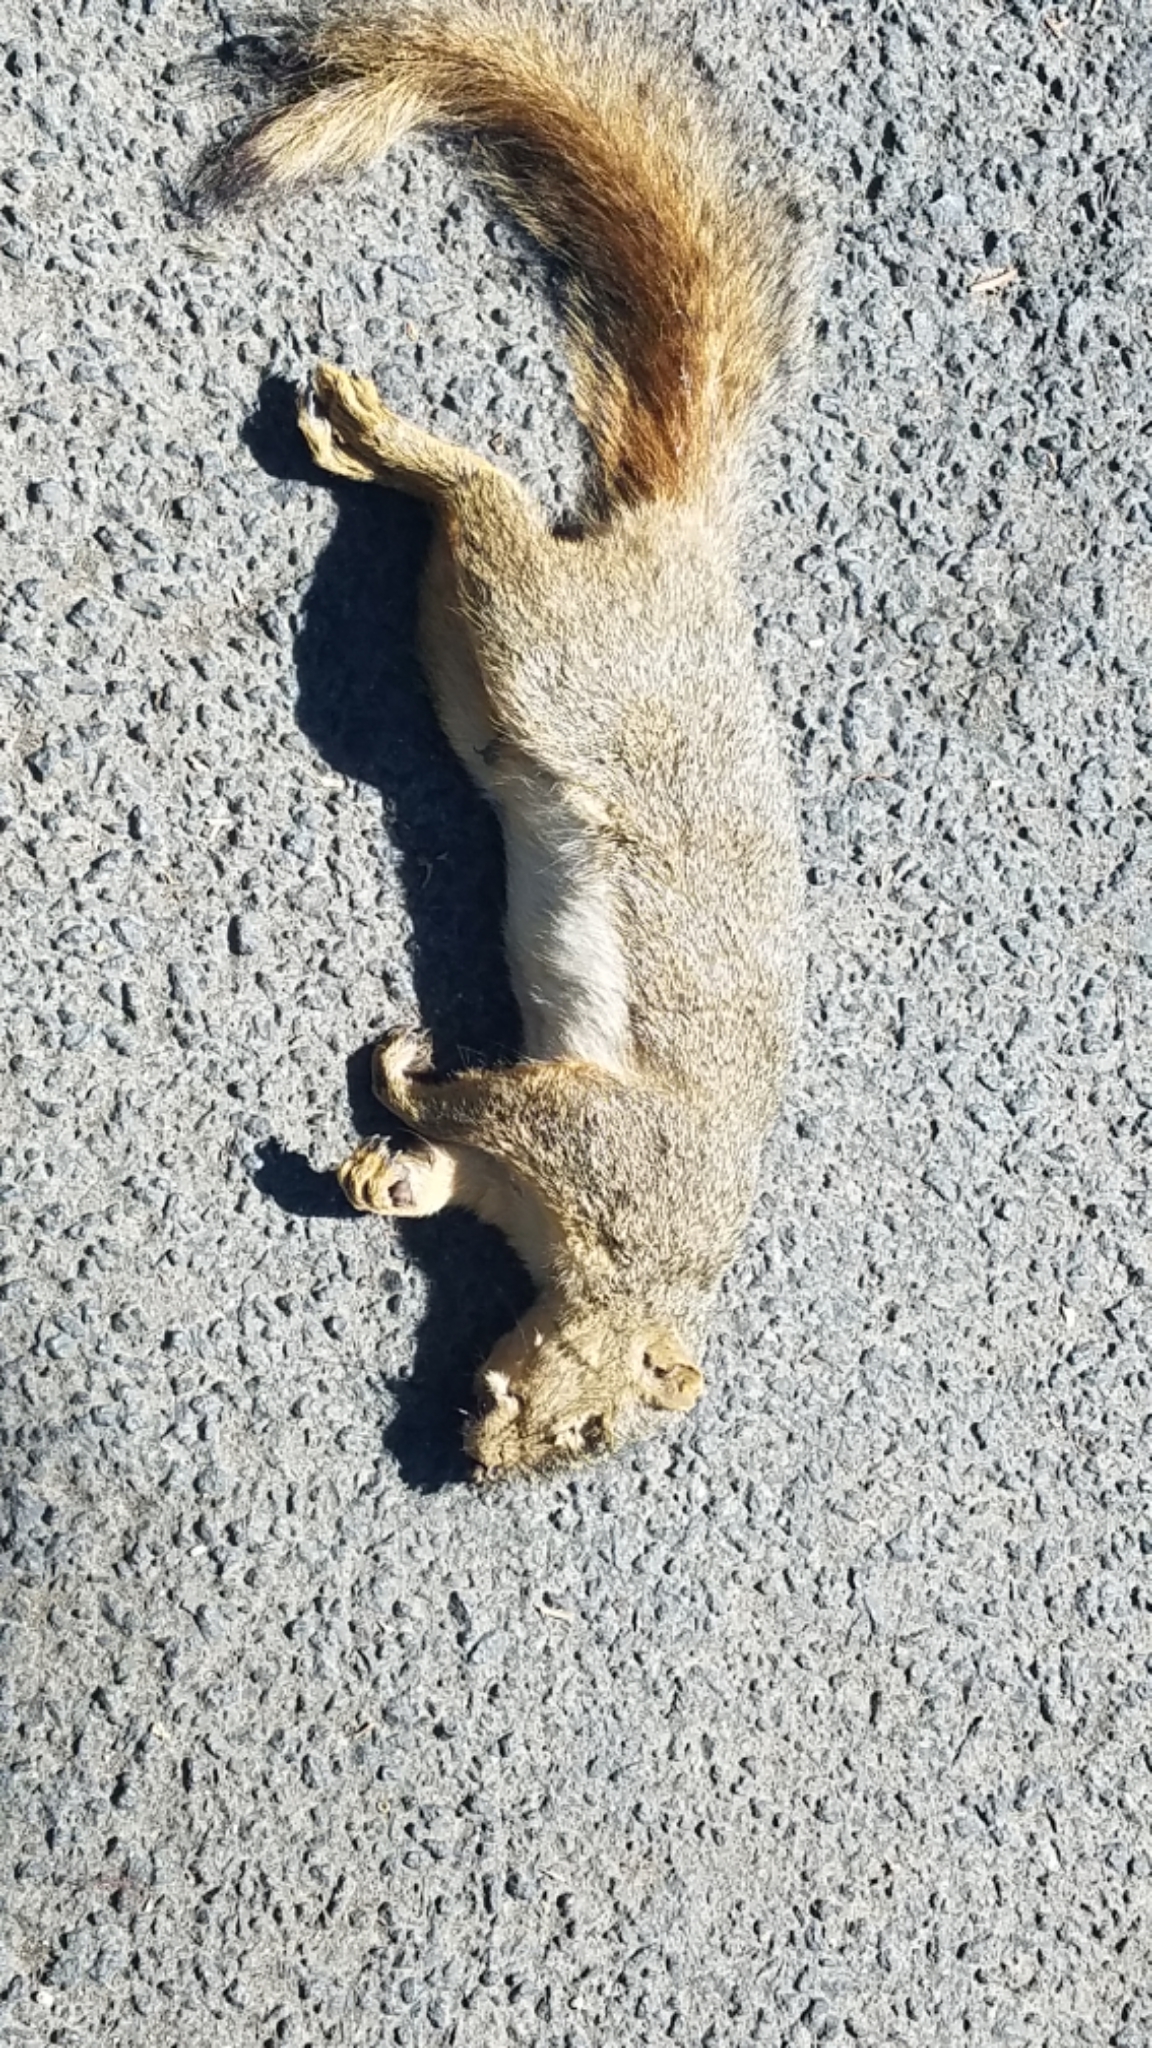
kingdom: Animalia
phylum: Chordata
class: Mammalia
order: Rodentia
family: Sciuridae
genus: Sciurus
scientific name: Sciurus niger
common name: Fox squirrel
